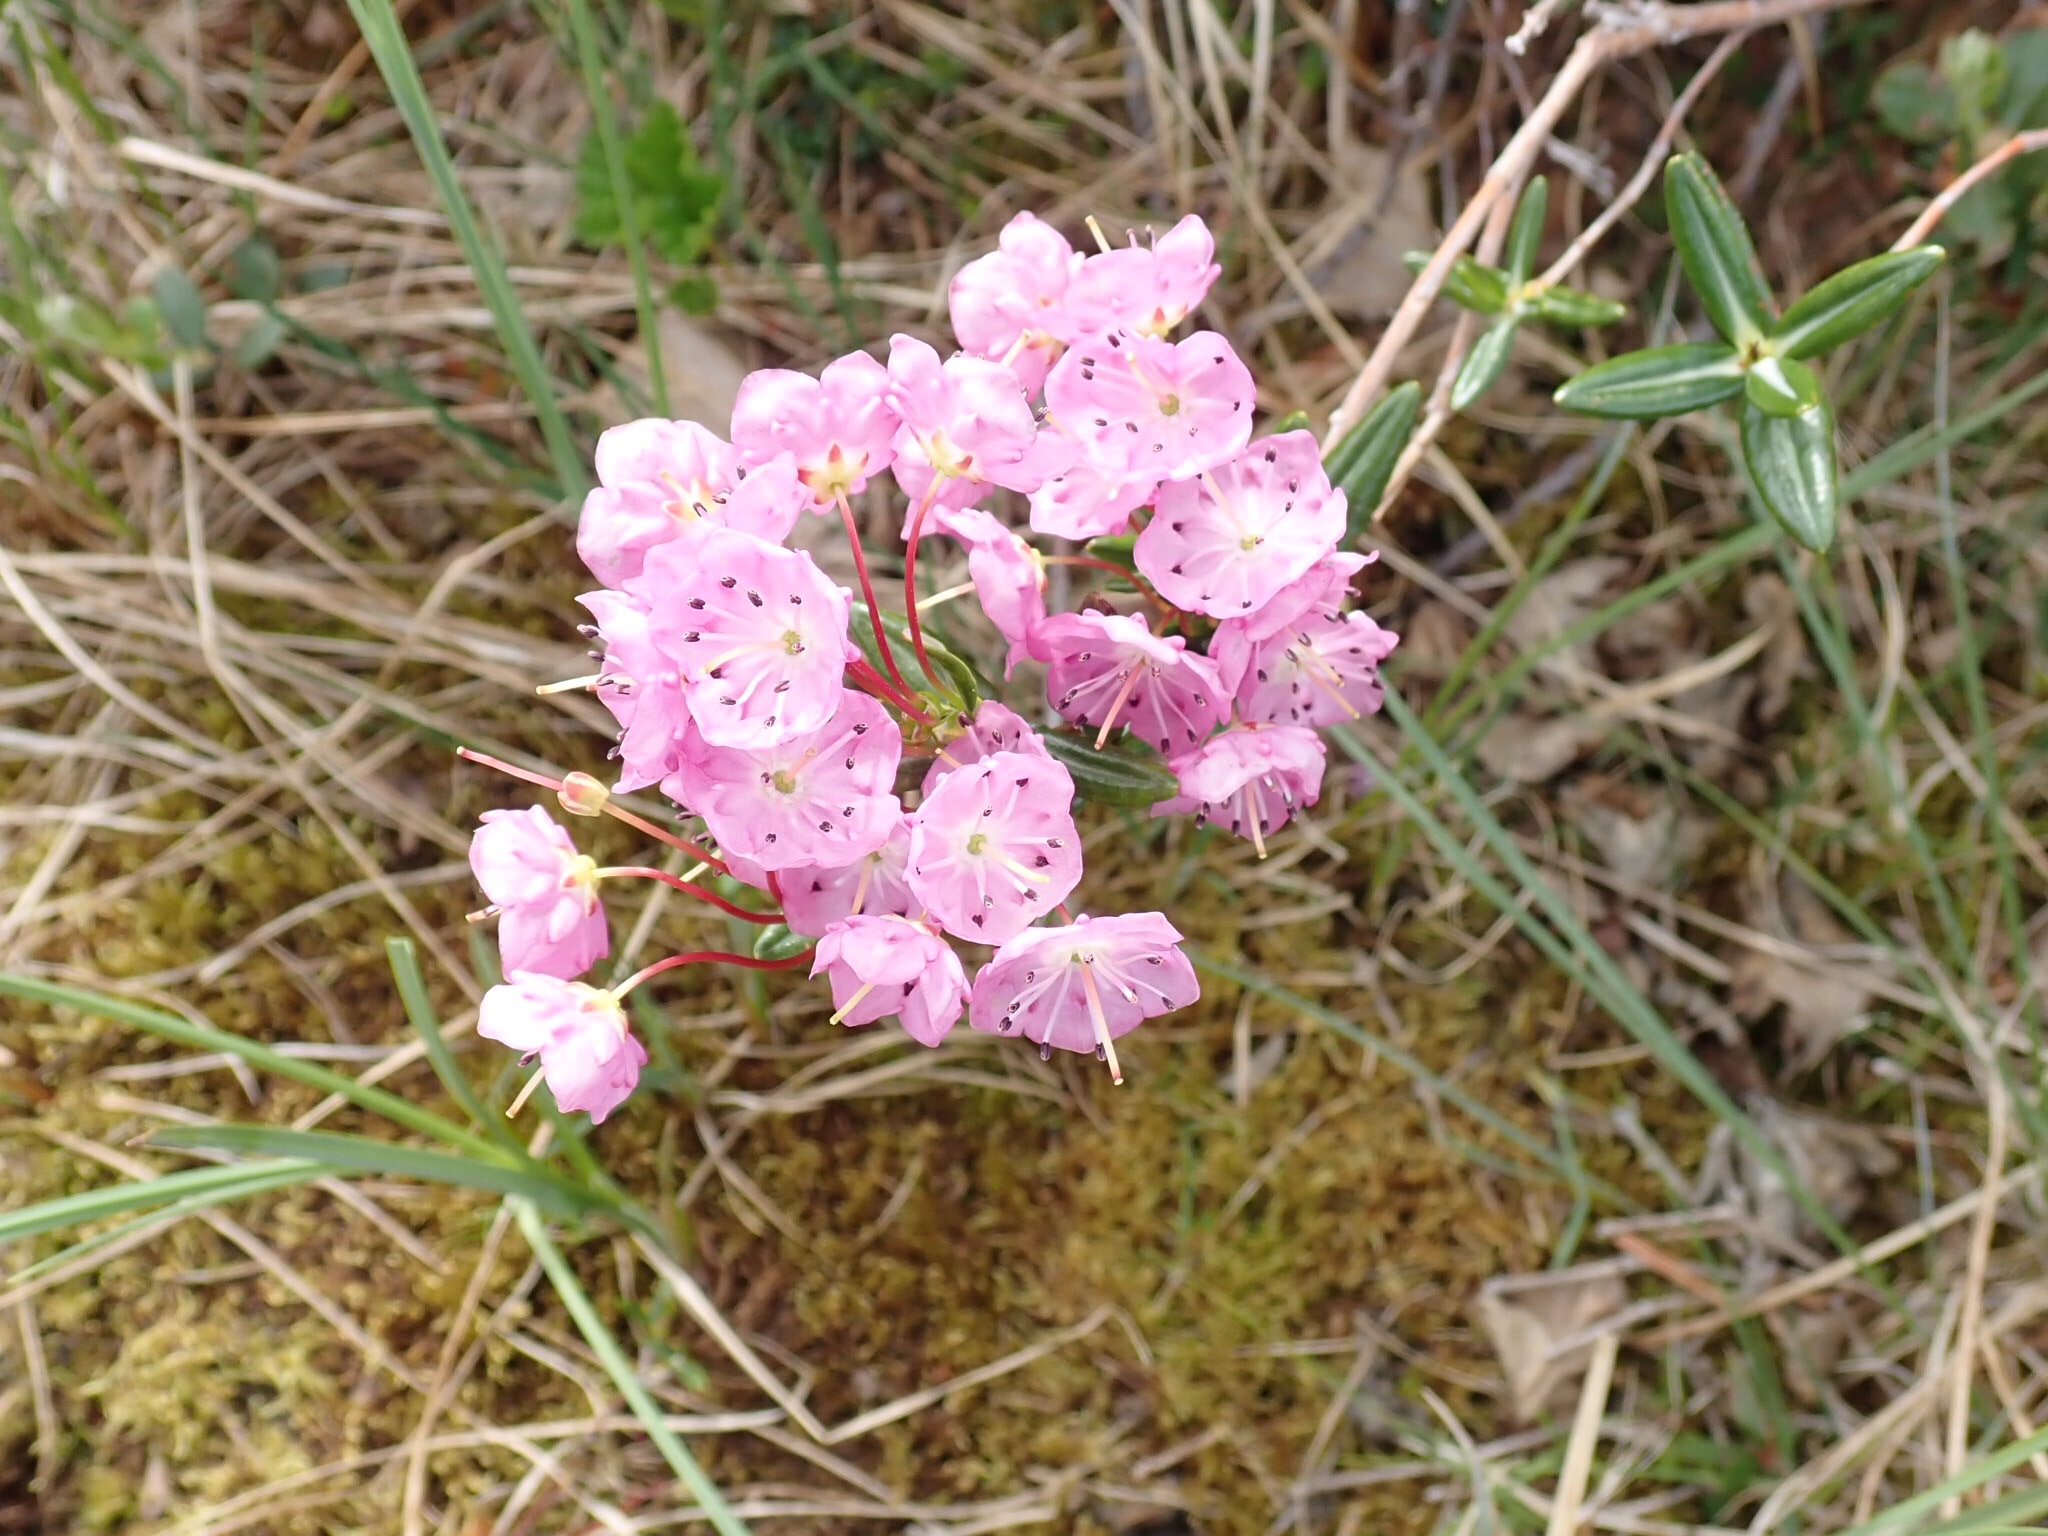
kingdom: Plantae
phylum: Tracheophyta
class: Magnoliopsida
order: Ericales
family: Ericaceae
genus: Kalmia
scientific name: Kalmia polifolia
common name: Bog-laurel
